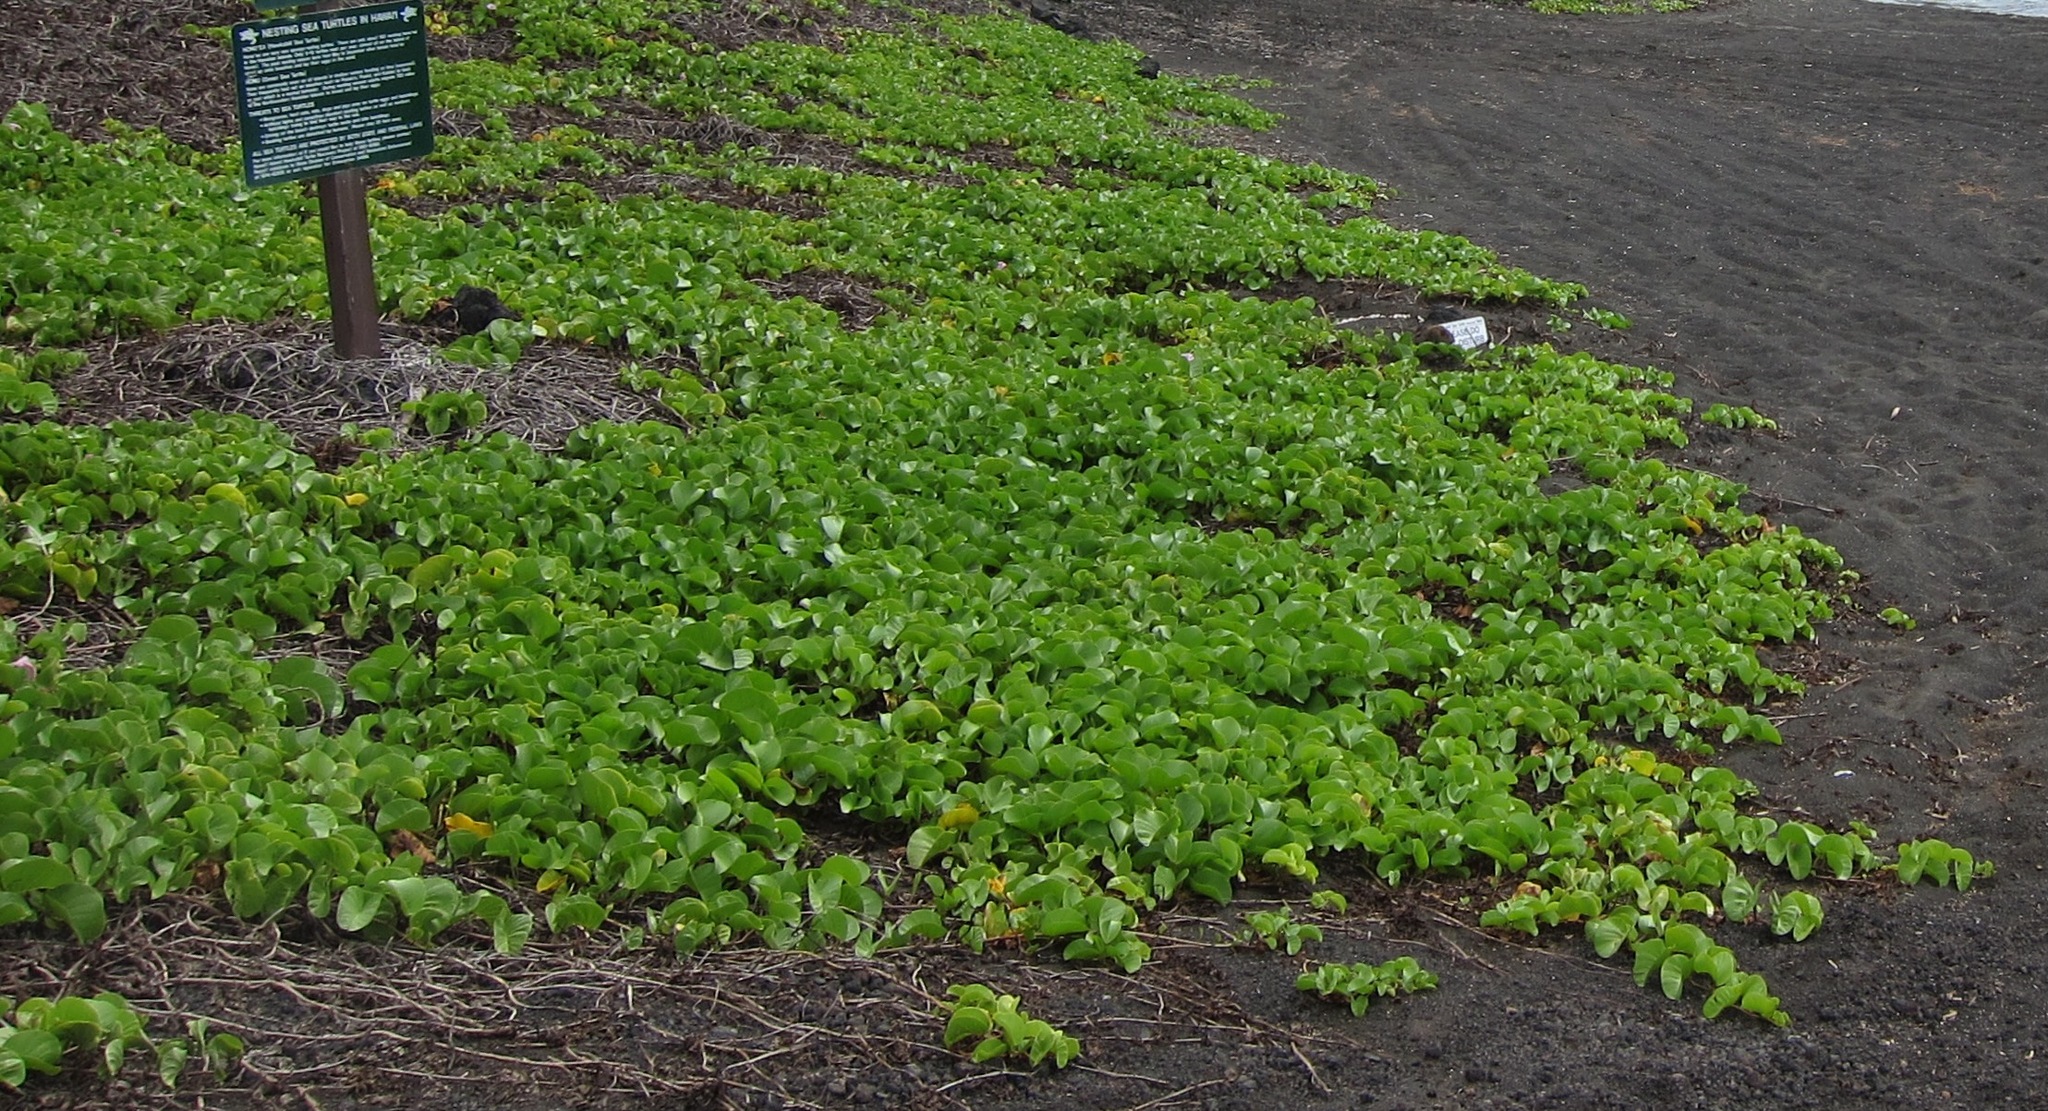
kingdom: Plantae
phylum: Tracheophyta
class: Magnoliopsida
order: Solanales
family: Convolvulaceae
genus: Ipomoea
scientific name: Ipomoea pes-caprae
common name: Beach morning glory
